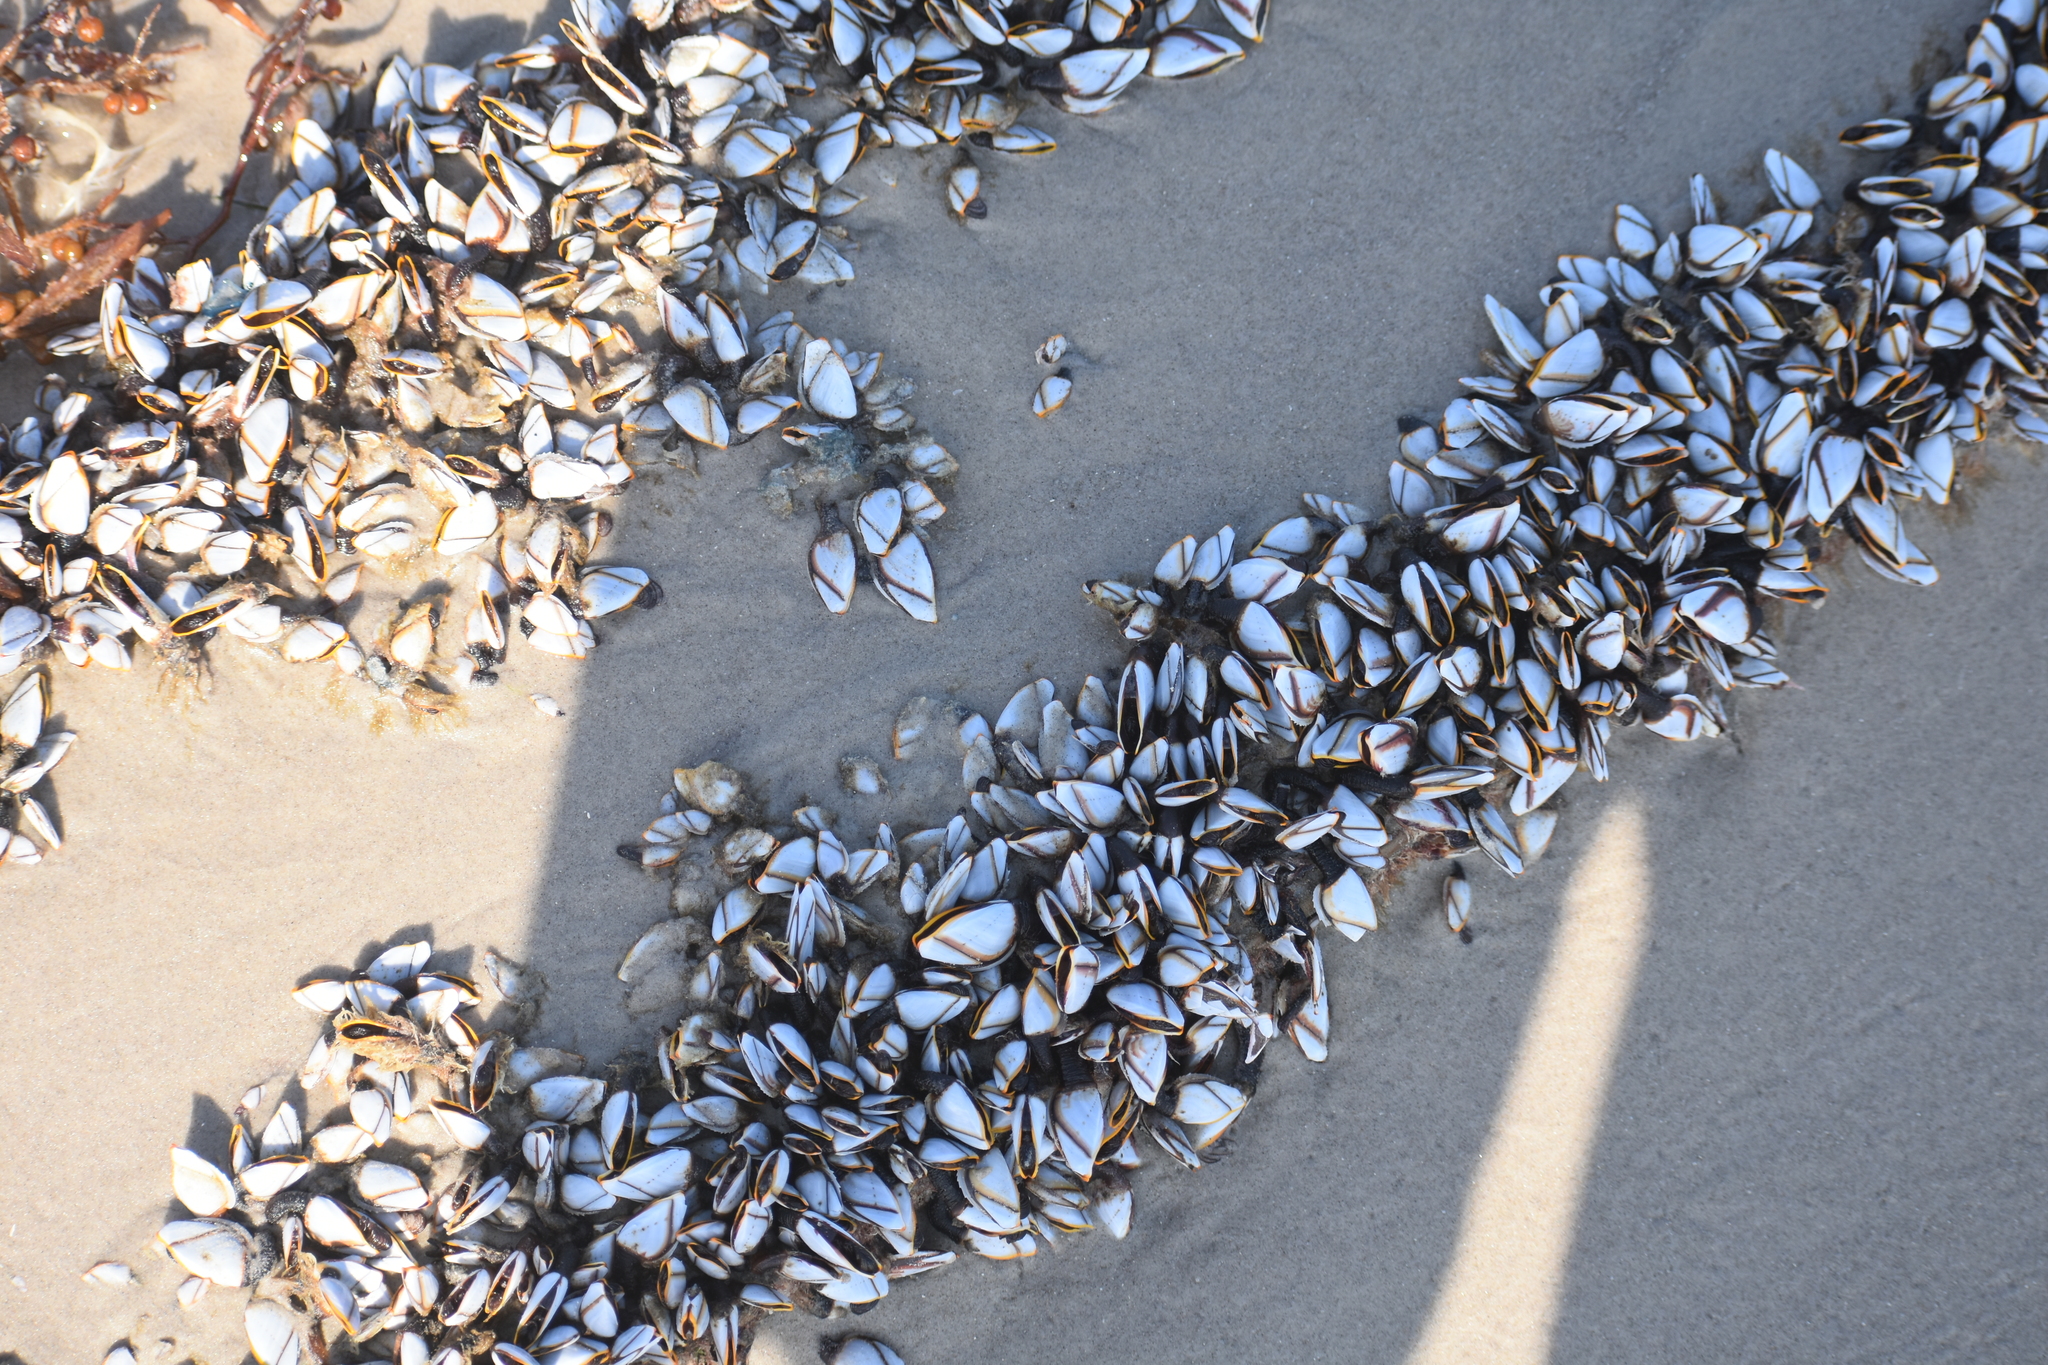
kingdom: Animalia
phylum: Arthropoda
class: Maxillopoda
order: Pedunculata
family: Lepadidae
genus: Lepas
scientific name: Lepas indica
